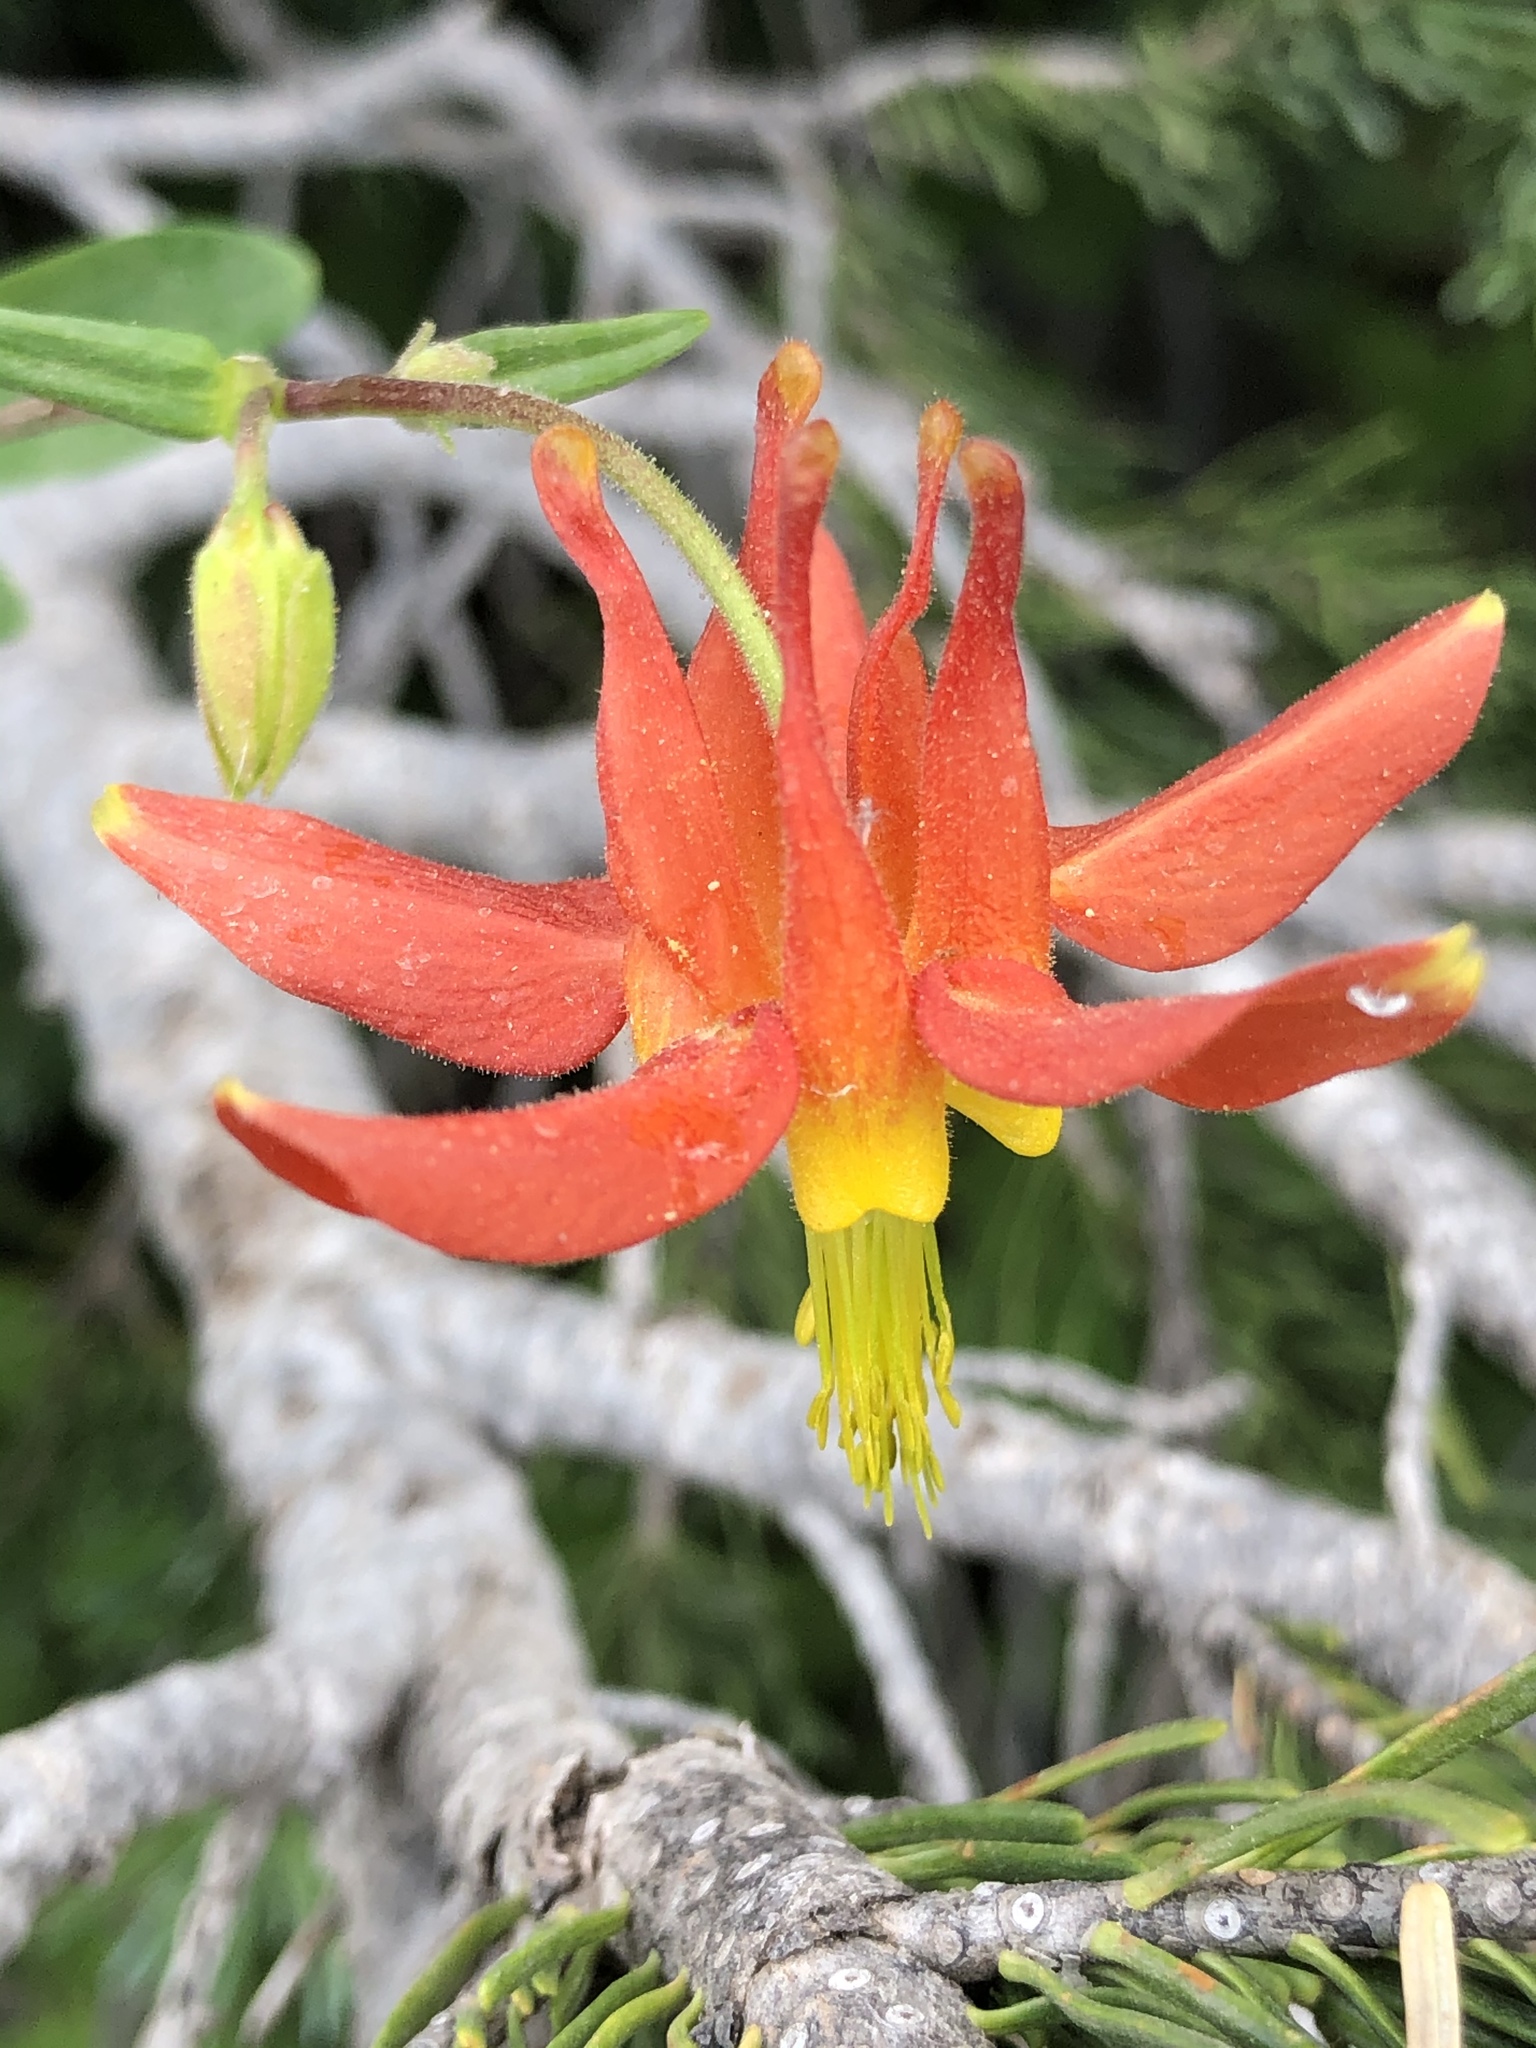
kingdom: Plantae
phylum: Tracheophyta
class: Magnoliopsida
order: Ranunculales
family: Ranunculaceae
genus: Aquilegia
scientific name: Aquilegia formosa
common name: Sitka columbine
